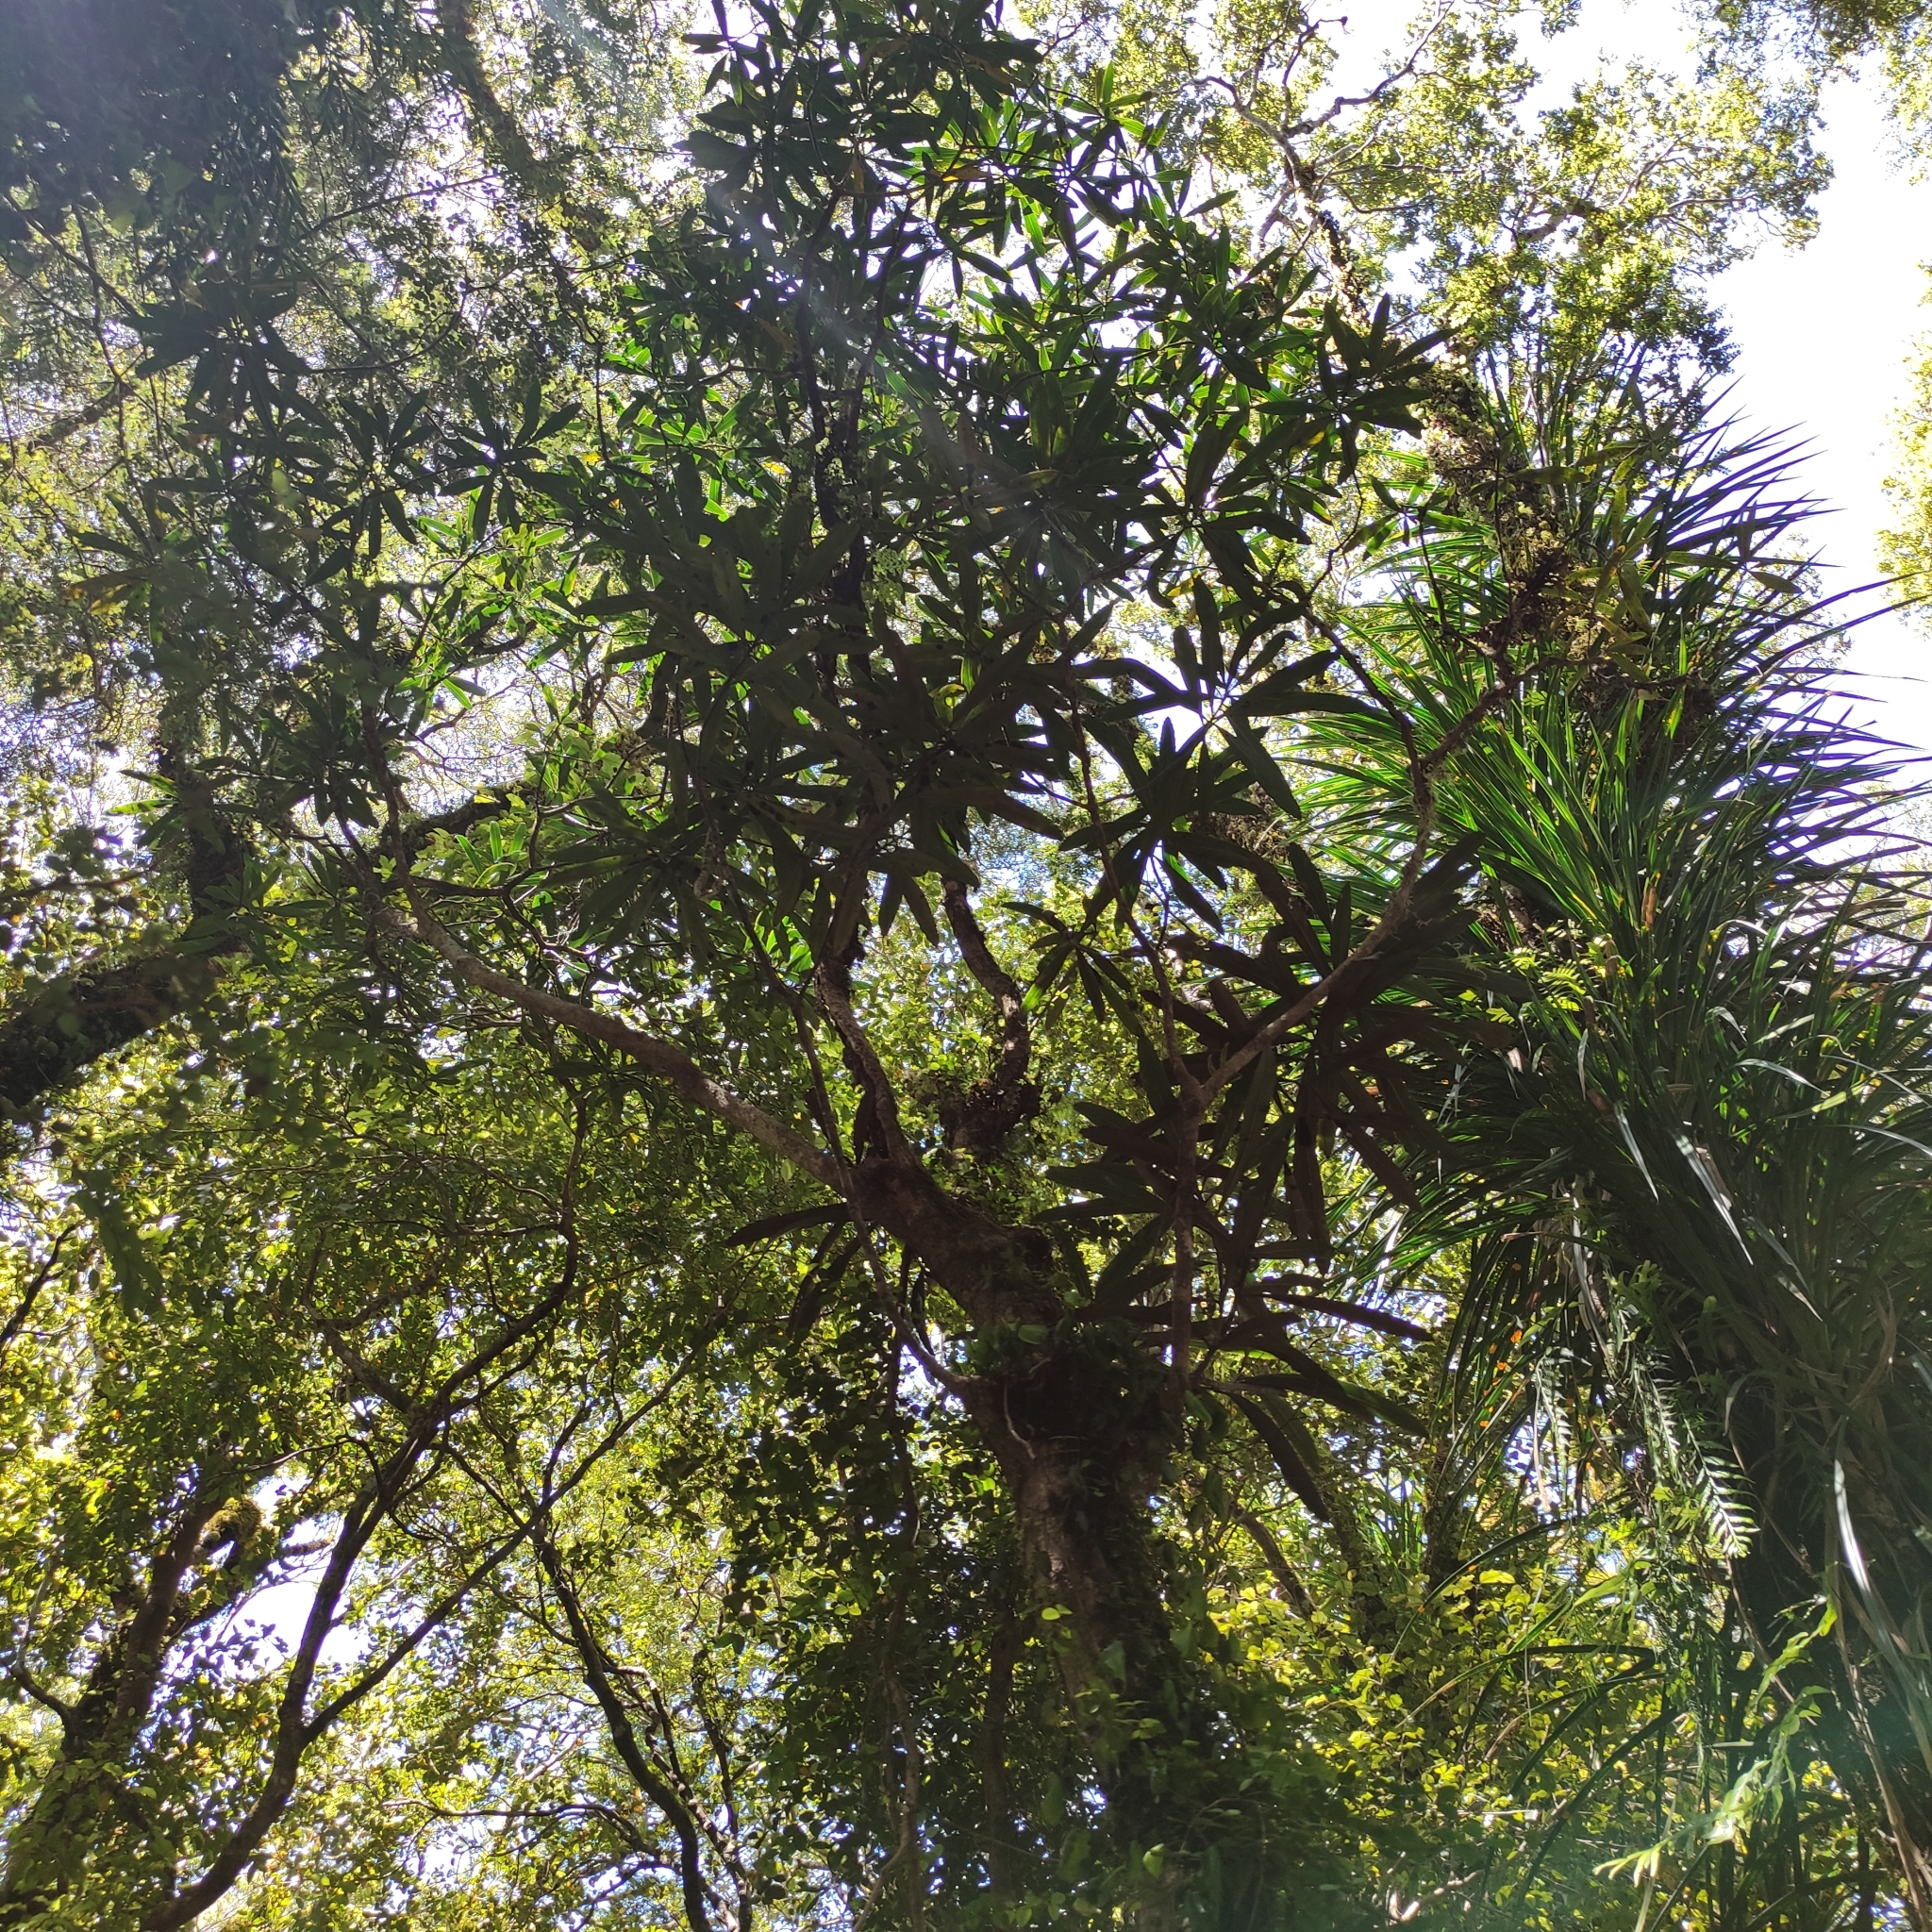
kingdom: Plantae
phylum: Tracheophyta
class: Magnoliopsida
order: Apiales
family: Araliaceae
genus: Pseudopanax
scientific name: Pseudopanax crassifolius
